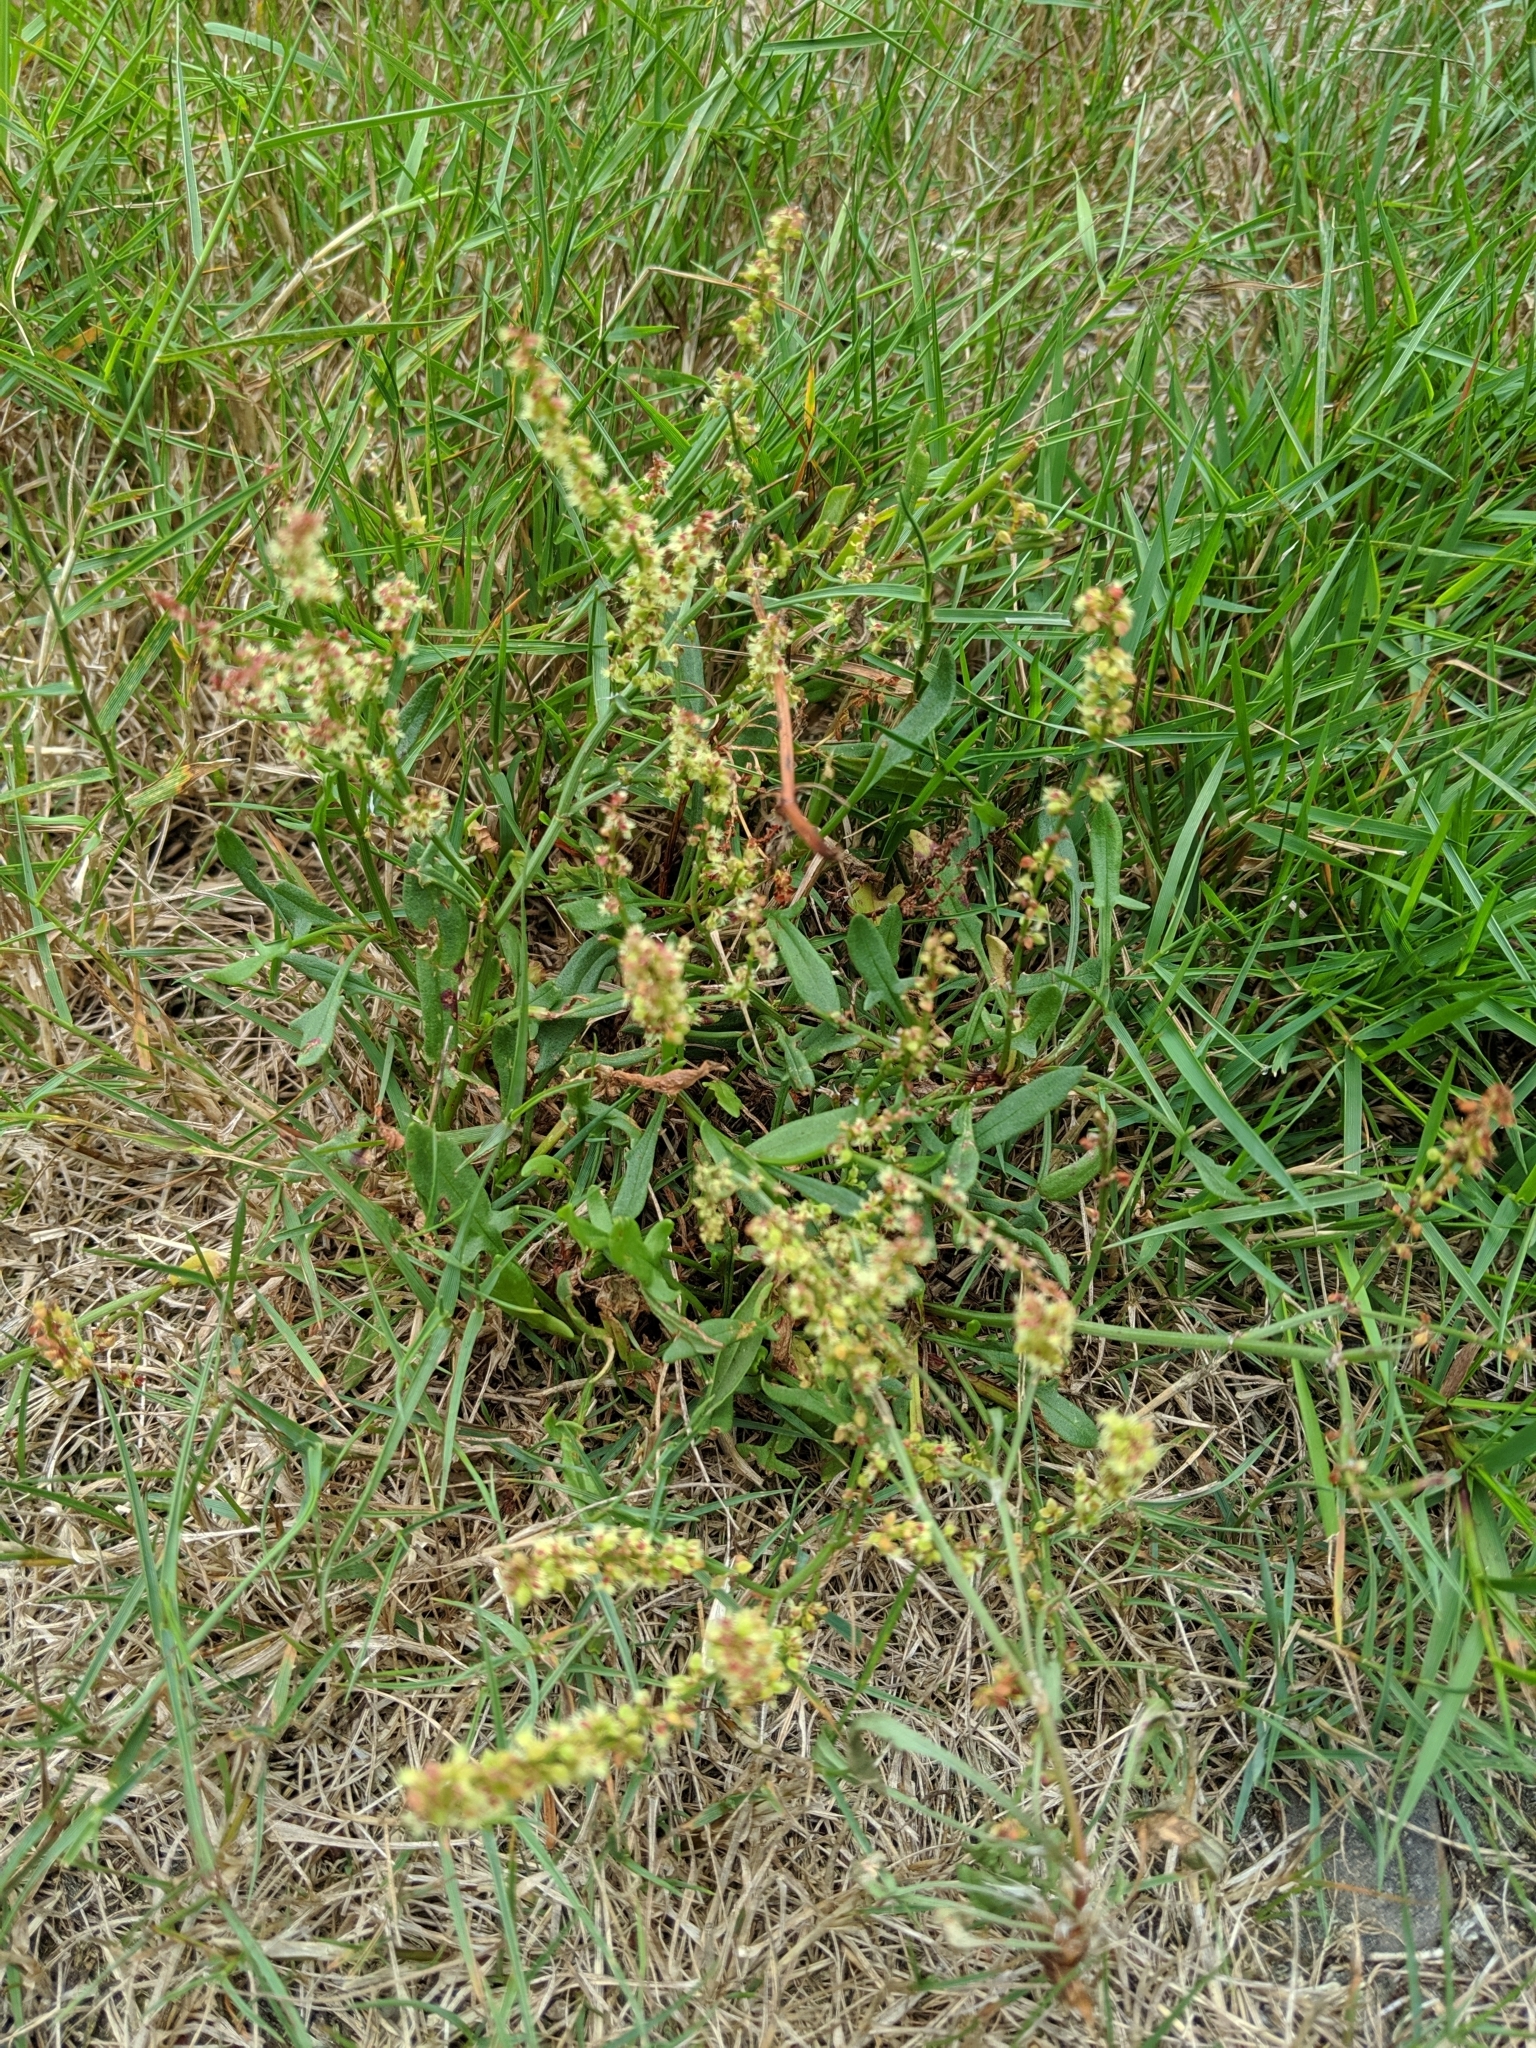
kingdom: Plantae
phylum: Tracheophyta
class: Magnoliopsida
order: Caryophyllales
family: Polygonaceae
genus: Rumex
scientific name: Rumex acetosella
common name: Common sheep sorrel
